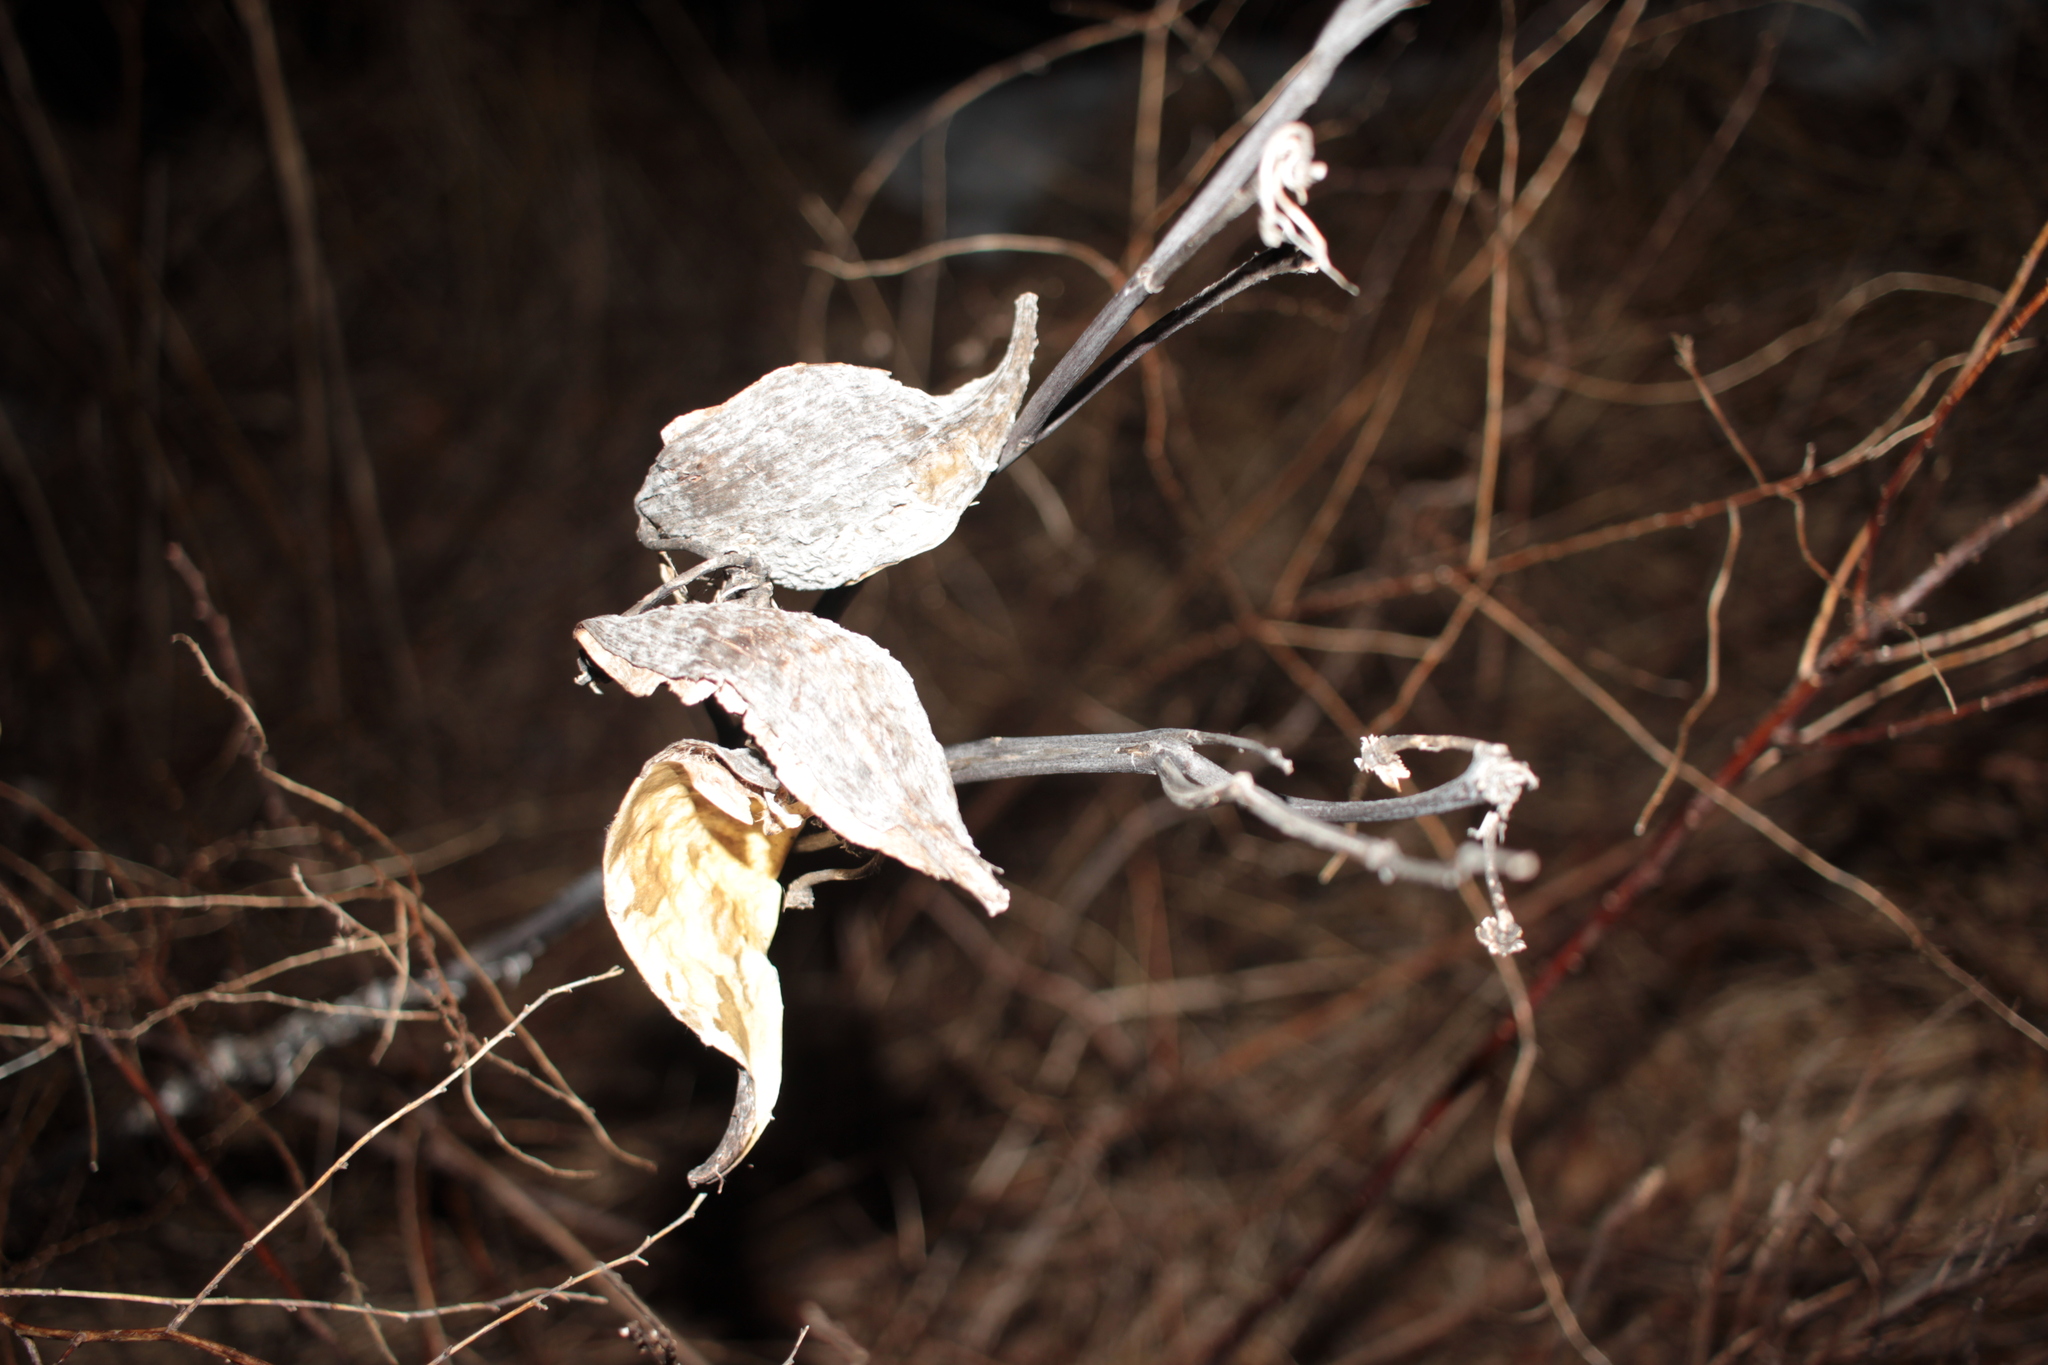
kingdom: Plantae
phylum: Tracheophyta
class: Magnoliopsida
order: Gentianales
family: Apocynaceae
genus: Asclepias
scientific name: Asclepias syriaca
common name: Common milkweed
